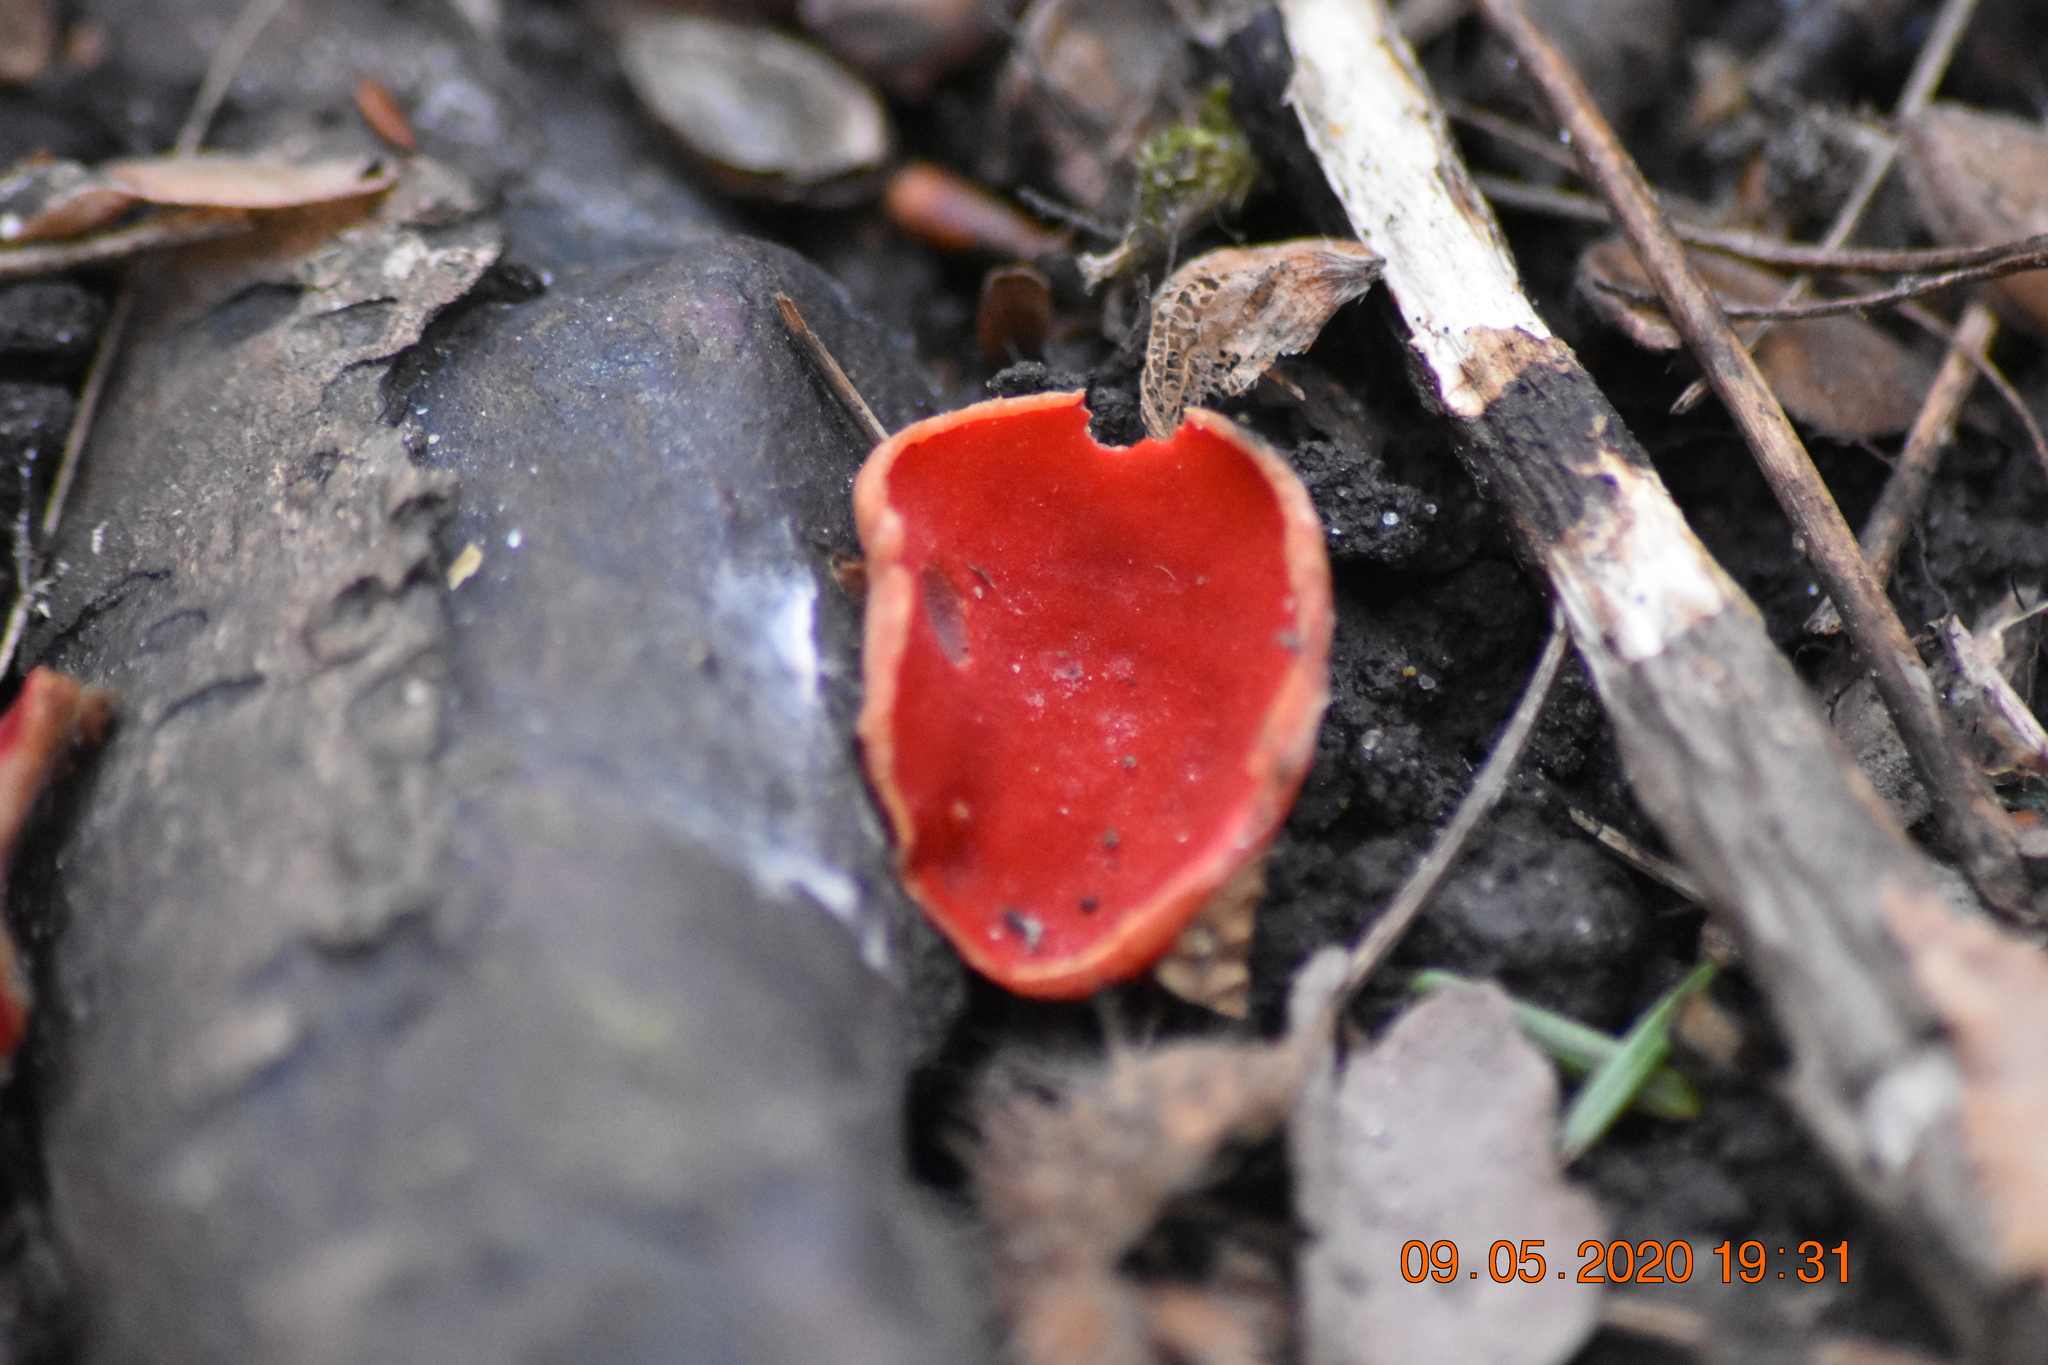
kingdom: Fungi
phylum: Ascomycota
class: Pezizomycetes
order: Pezizales
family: Sarcoscyphaceae
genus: Sarcoscypha
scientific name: Sarcoscypha austriaca
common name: Scarlet elfcup
